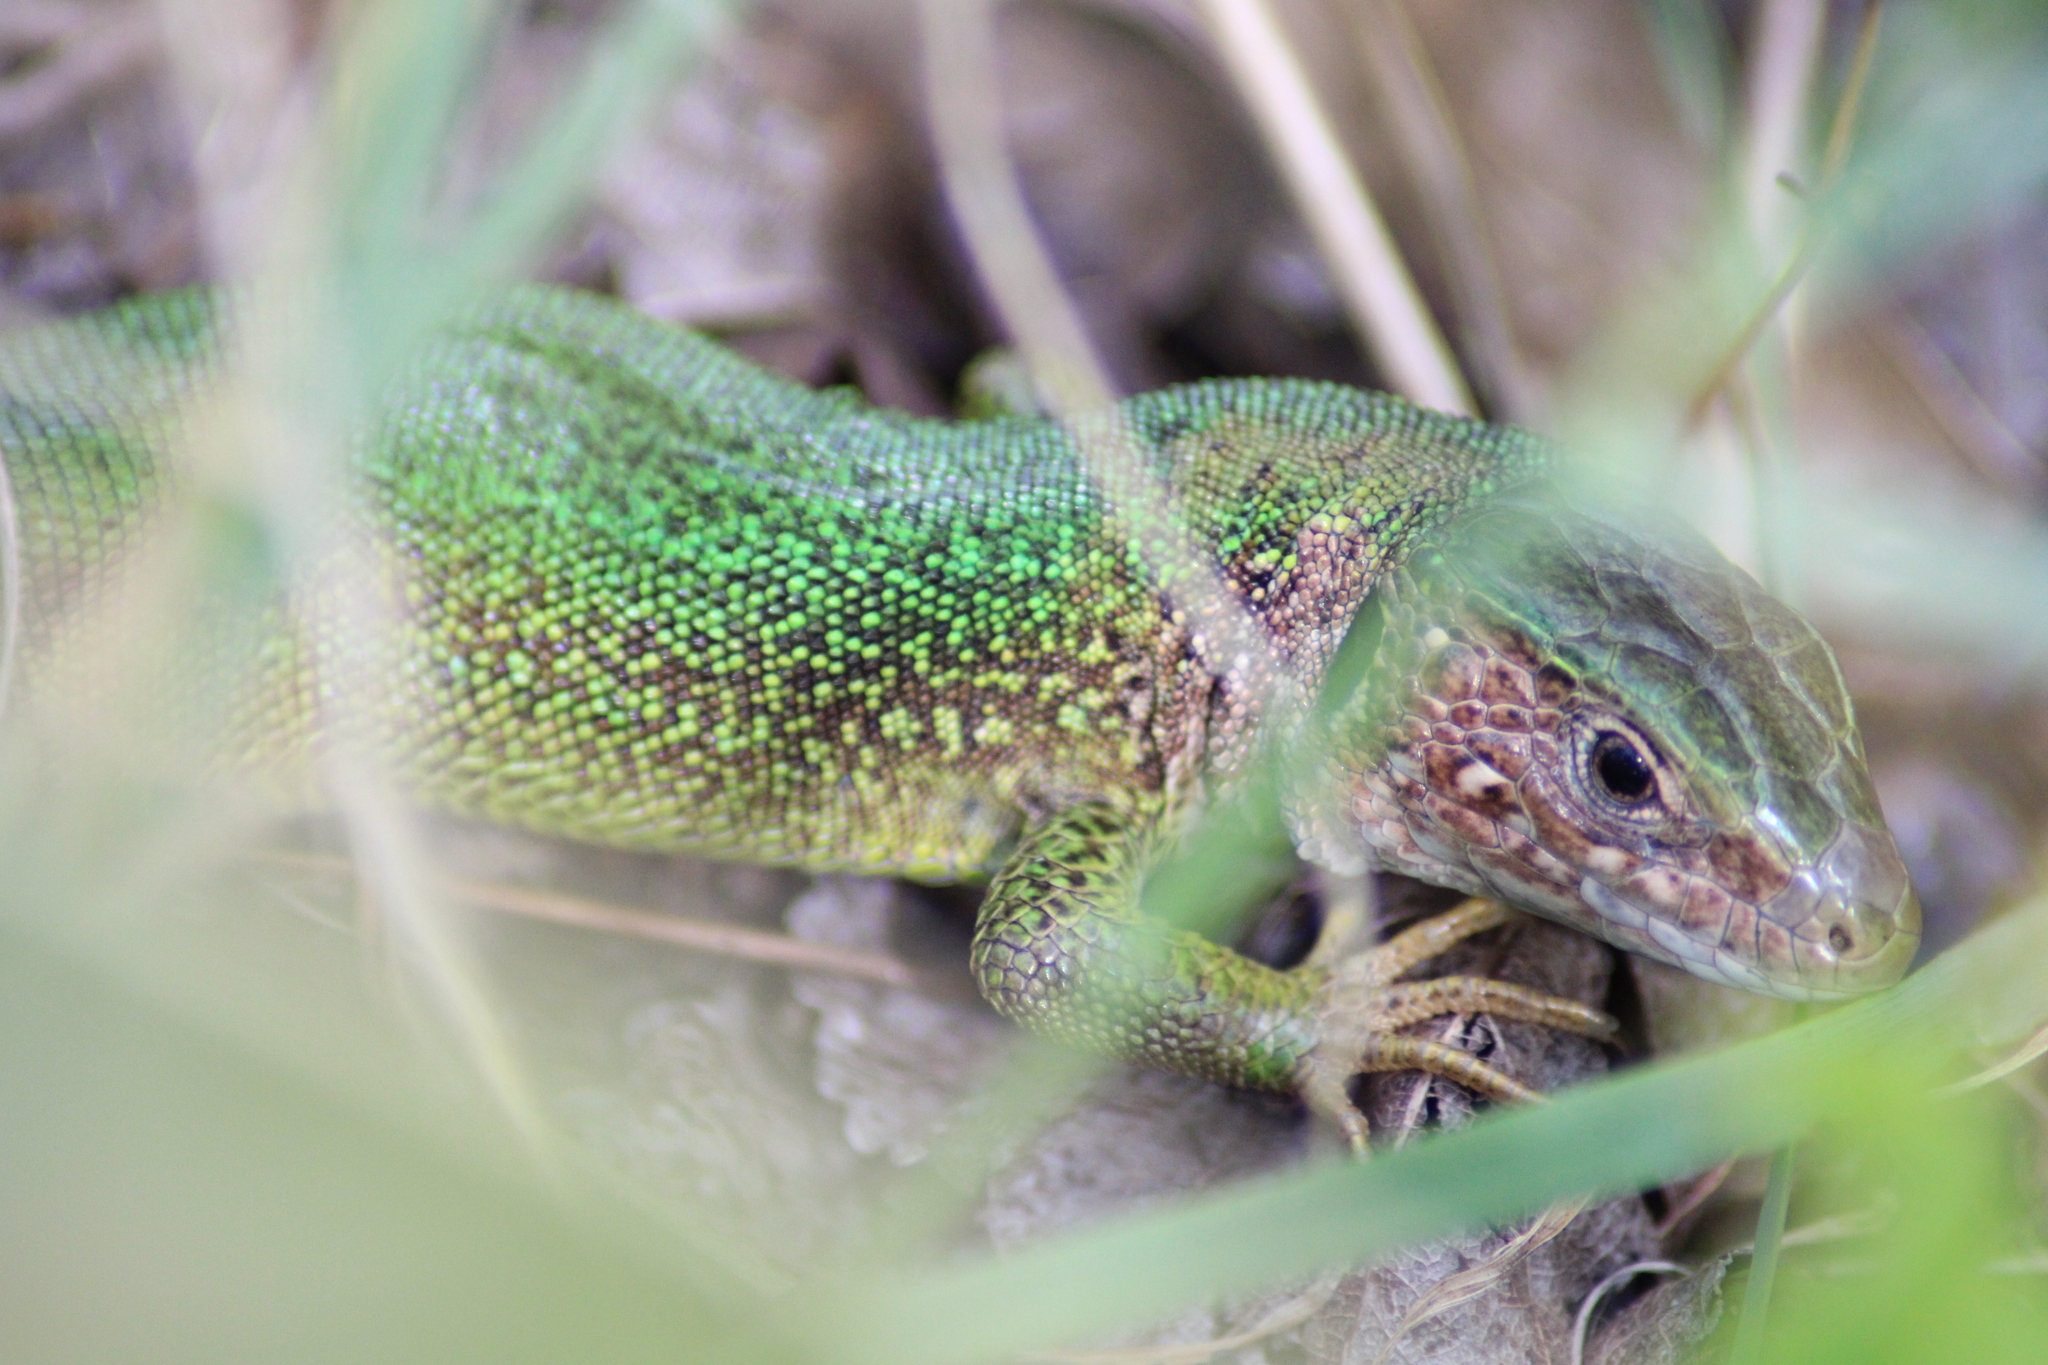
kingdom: Animalia
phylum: Chordata
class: Squamata
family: Lacertidae
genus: Lacerta
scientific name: Lacerta viridis
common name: European green lizard
